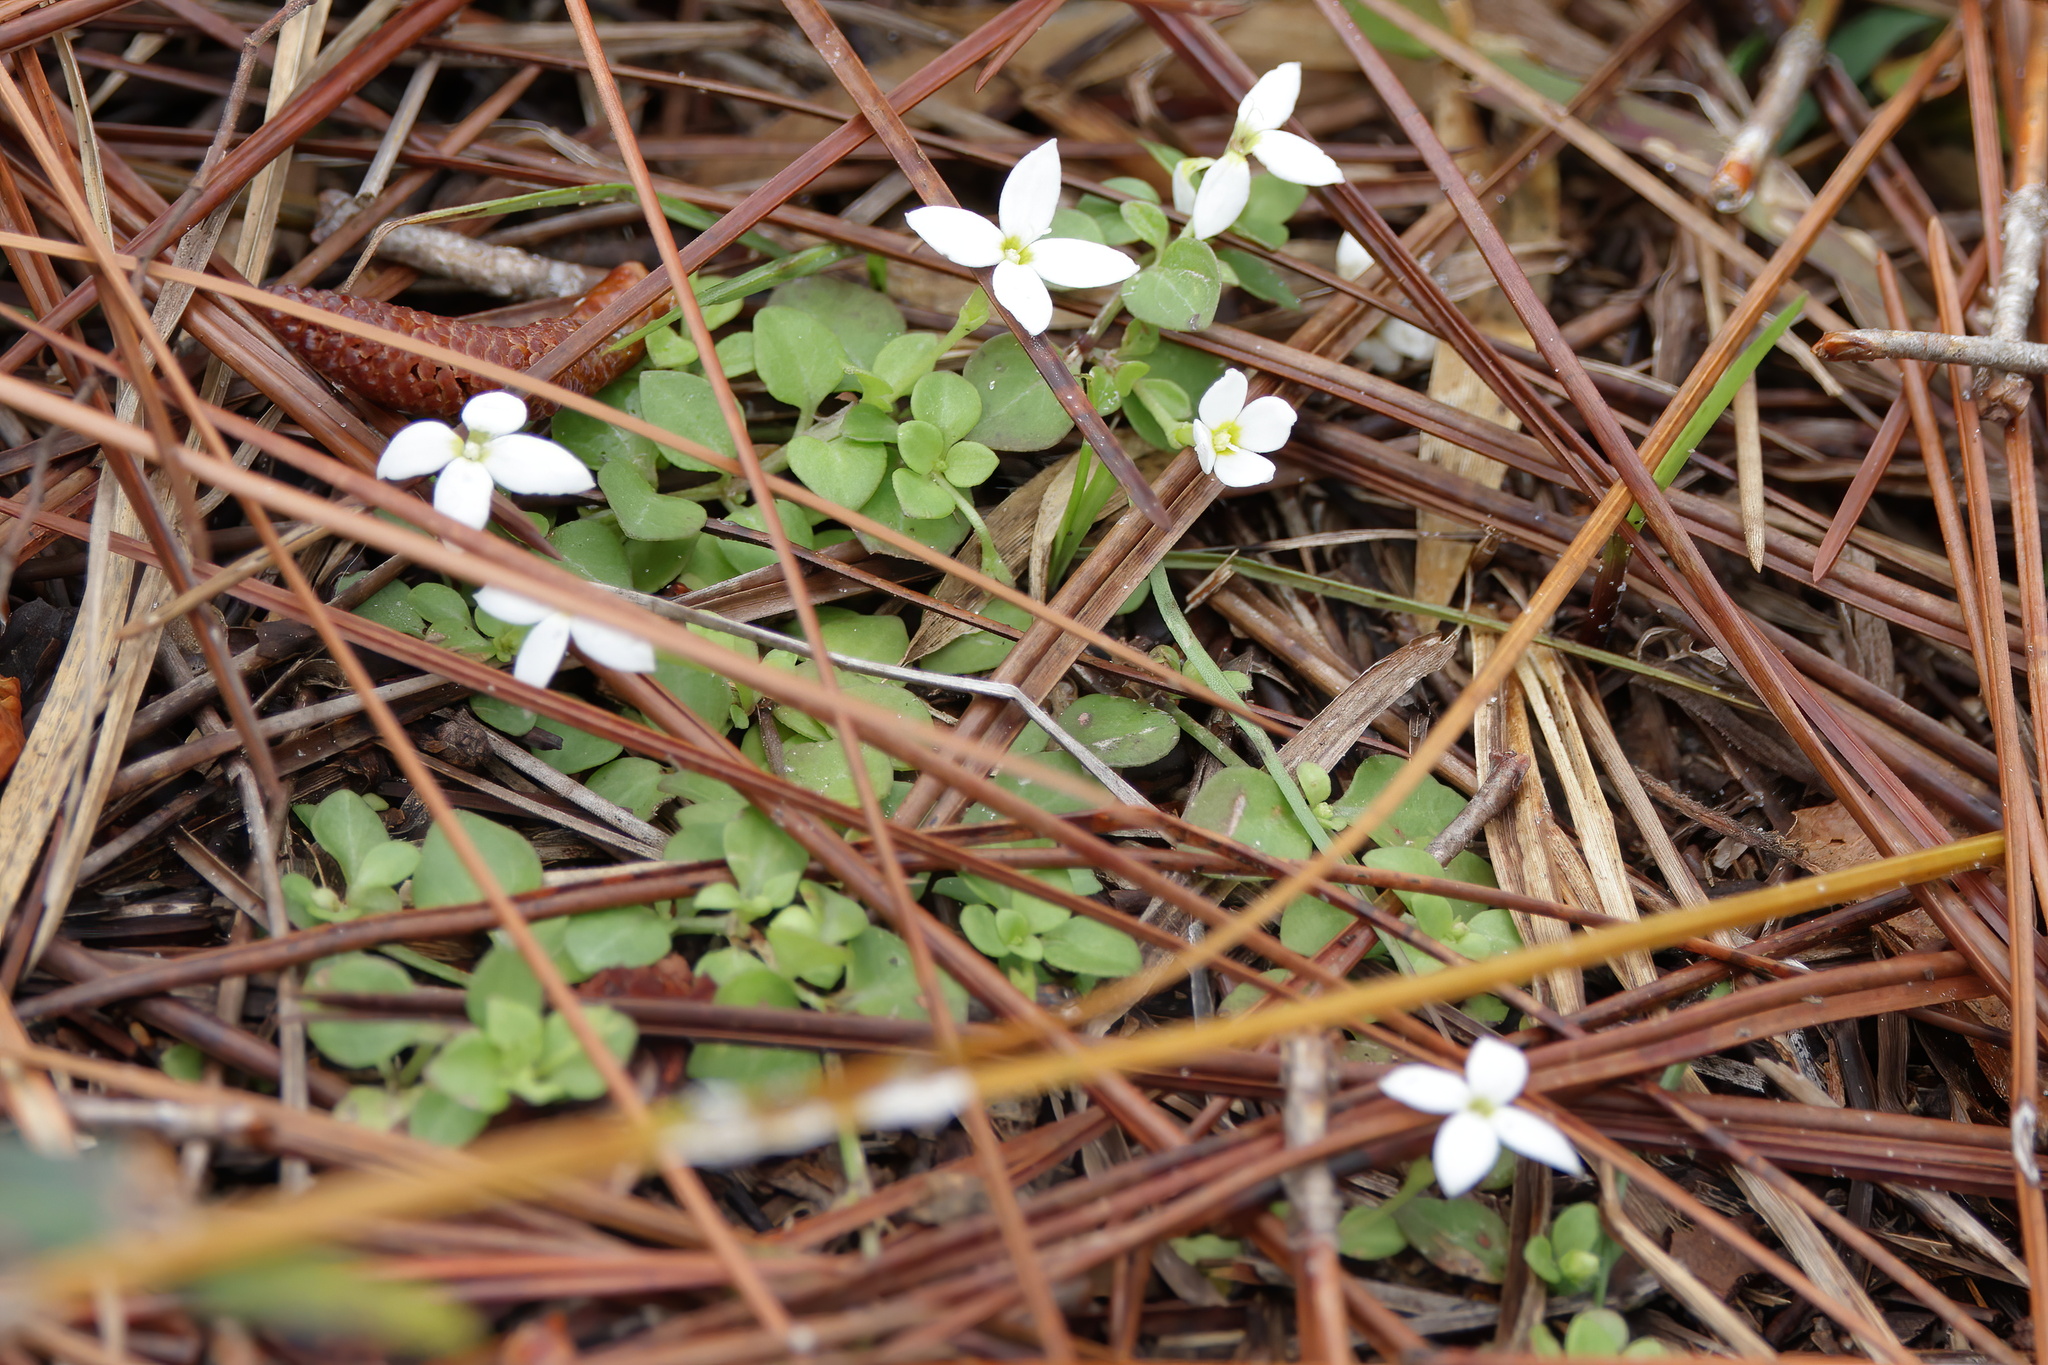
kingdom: Plantae
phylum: Tracheophyta
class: Magnoliopsida
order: Gentianales
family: Rubiaceae
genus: Houstonia
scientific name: Houstonia procumbens
